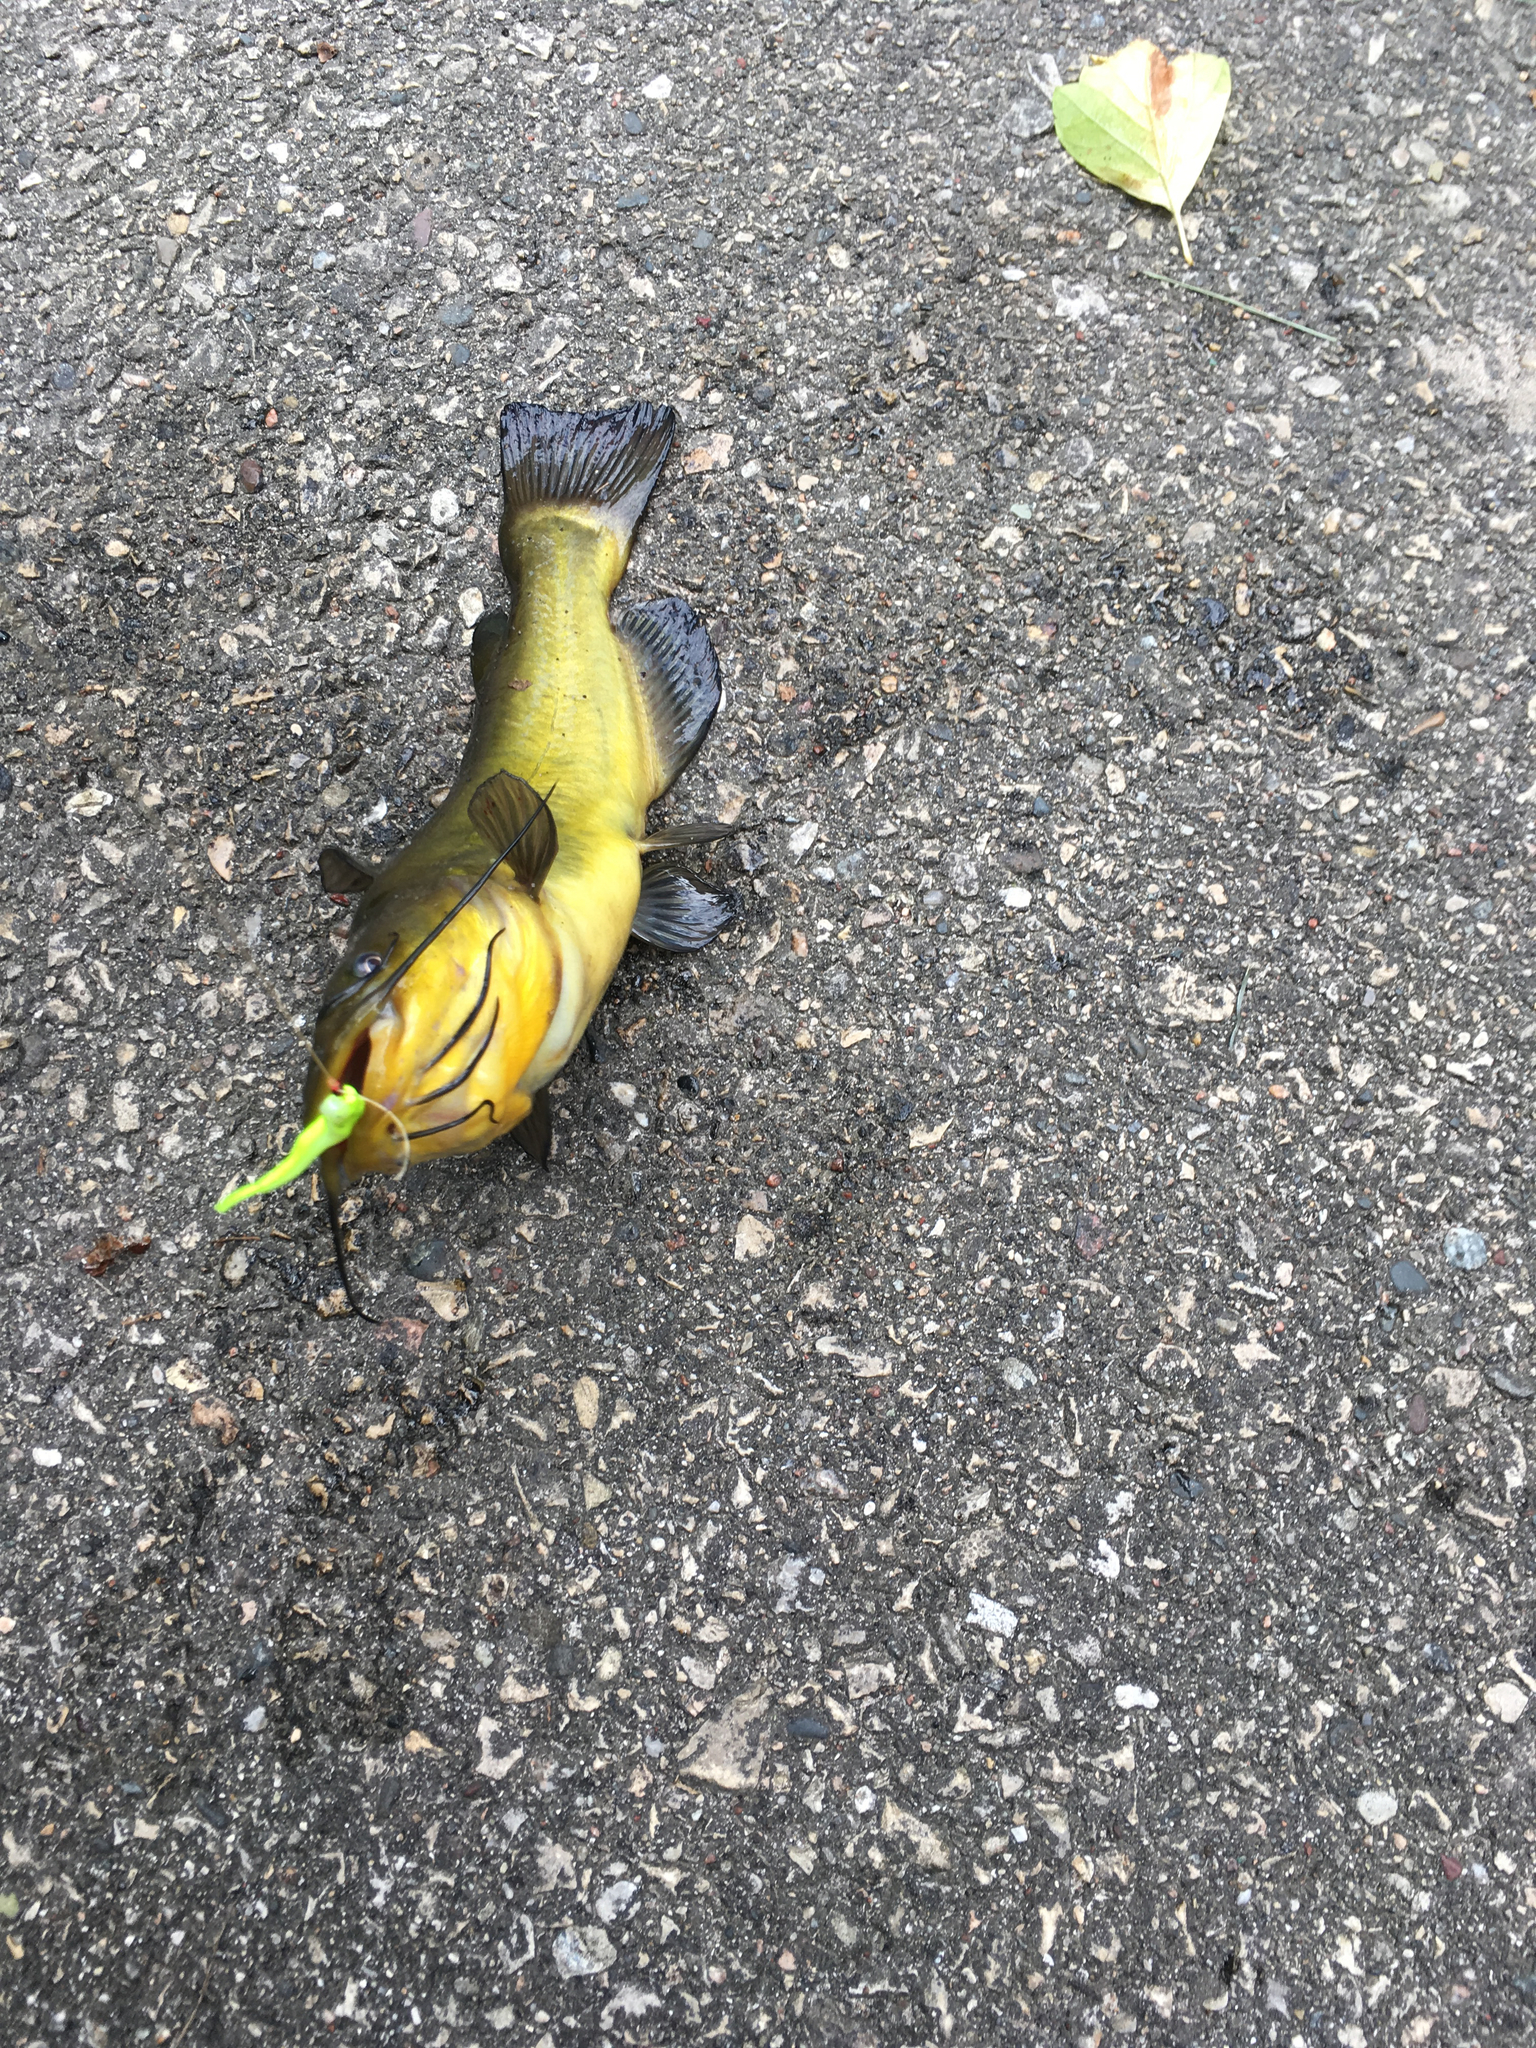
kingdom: Animalia
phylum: Chordata
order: Siluriformes
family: Ictaluridae
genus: Ameiurus
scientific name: Ameiurus melas
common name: Black bullhead
